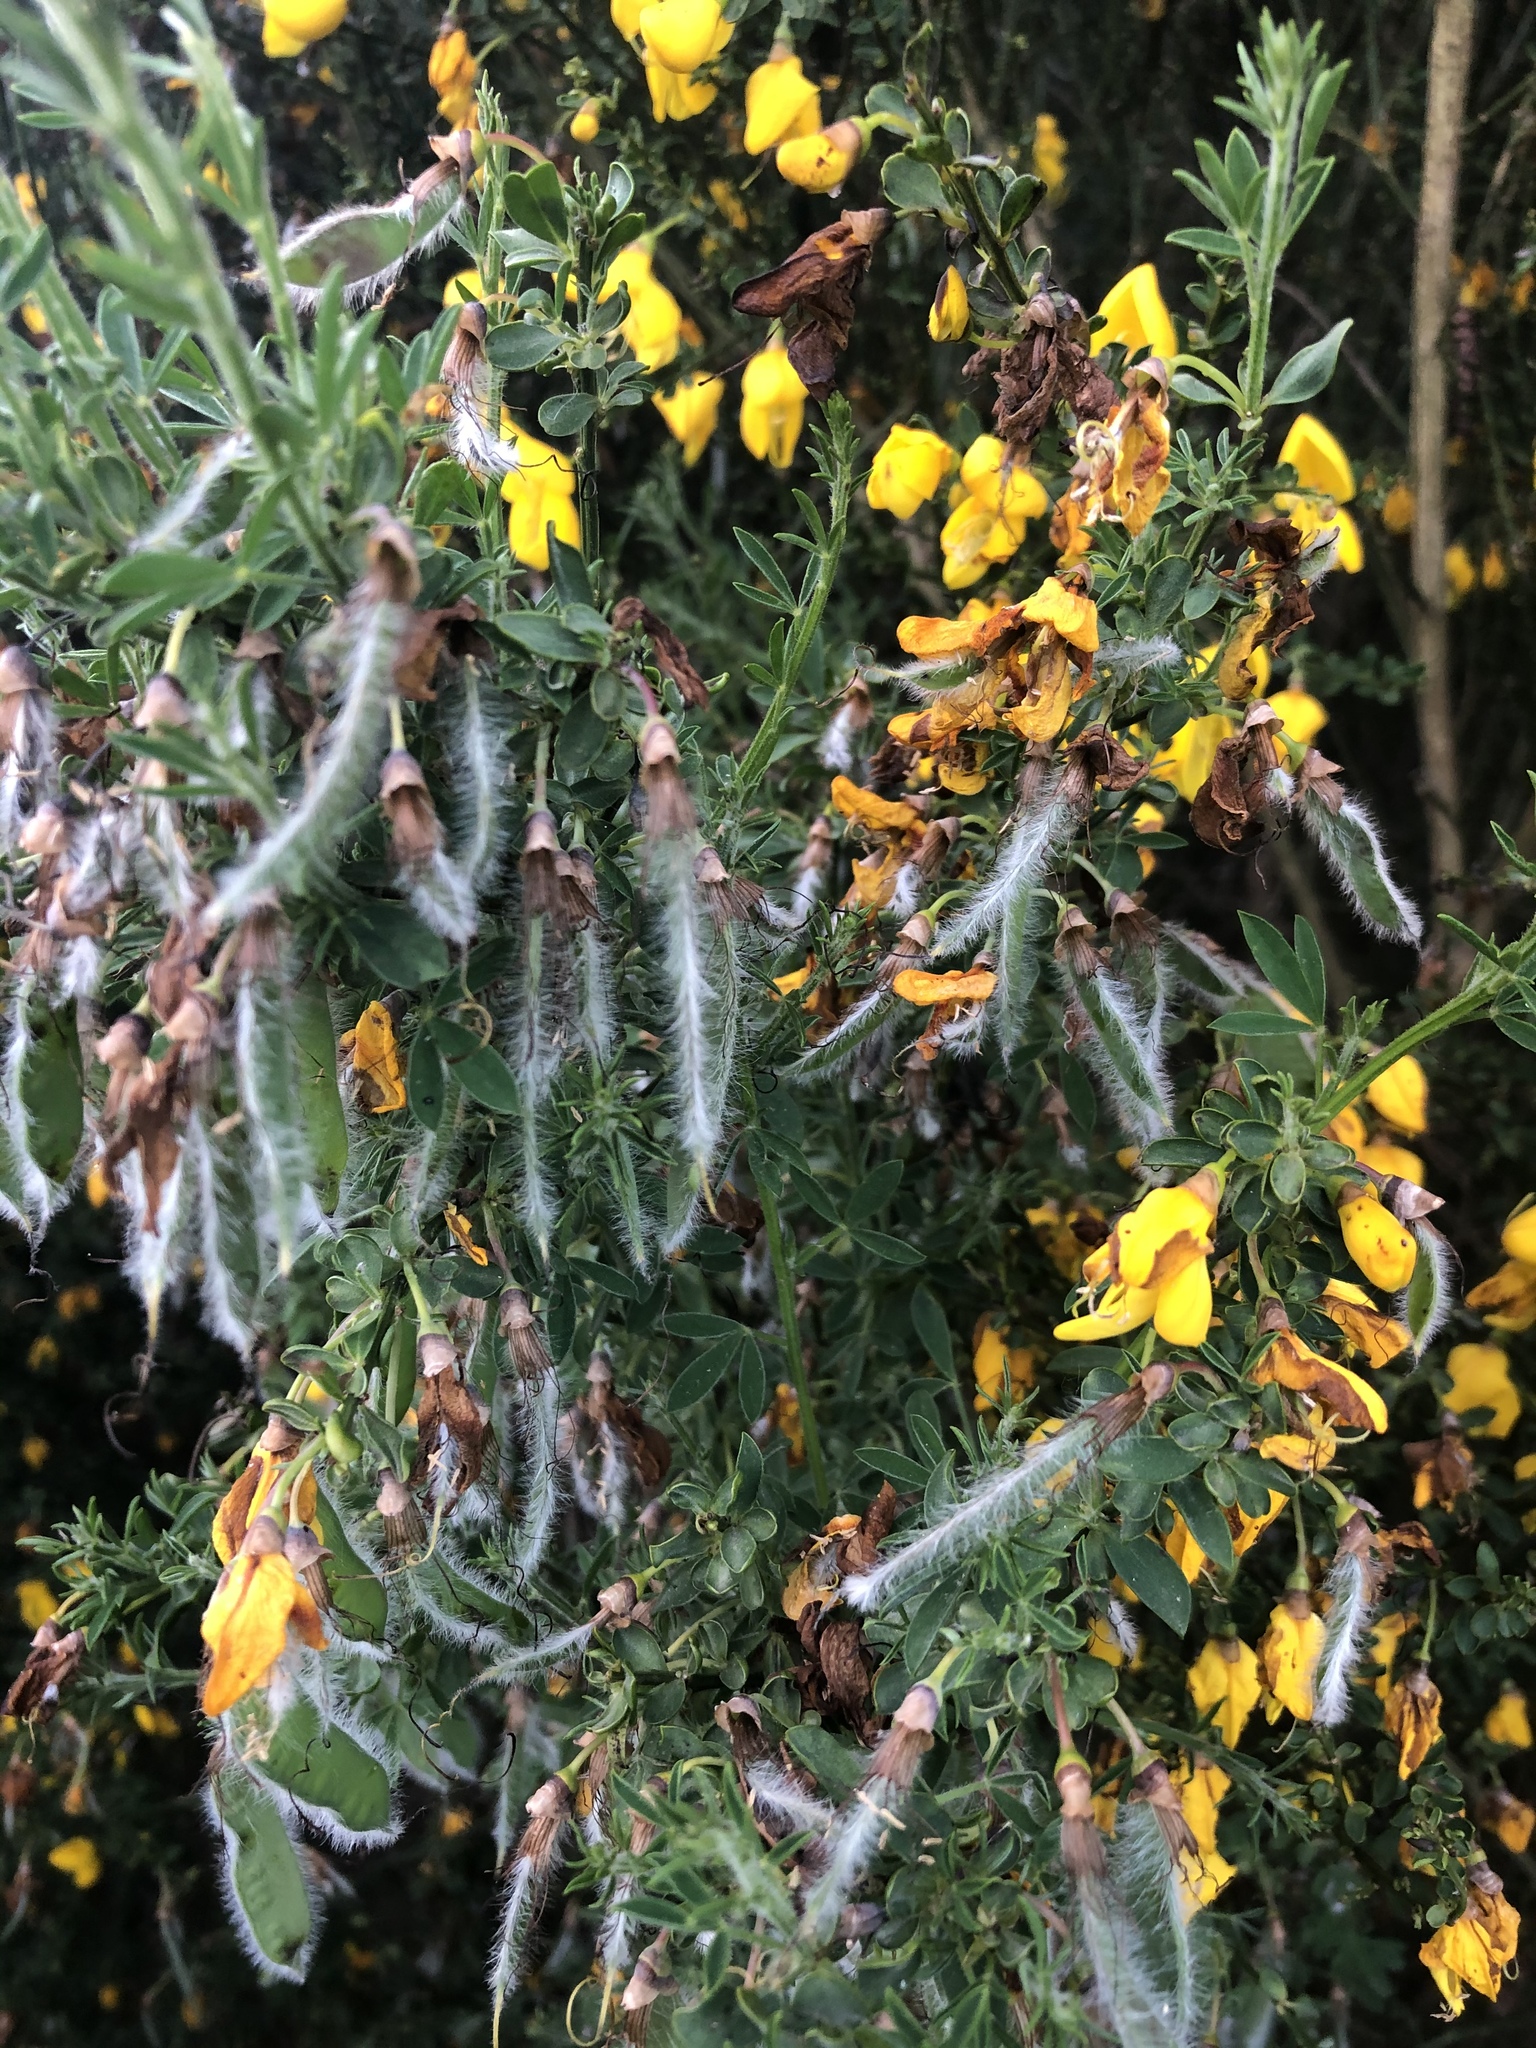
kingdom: Plantae
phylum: Tracheophyta
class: Magnoliopsida
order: Fabales
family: Fabaceae
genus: Cytisus
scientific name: Cytisus scoparius
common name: Scotch broom
